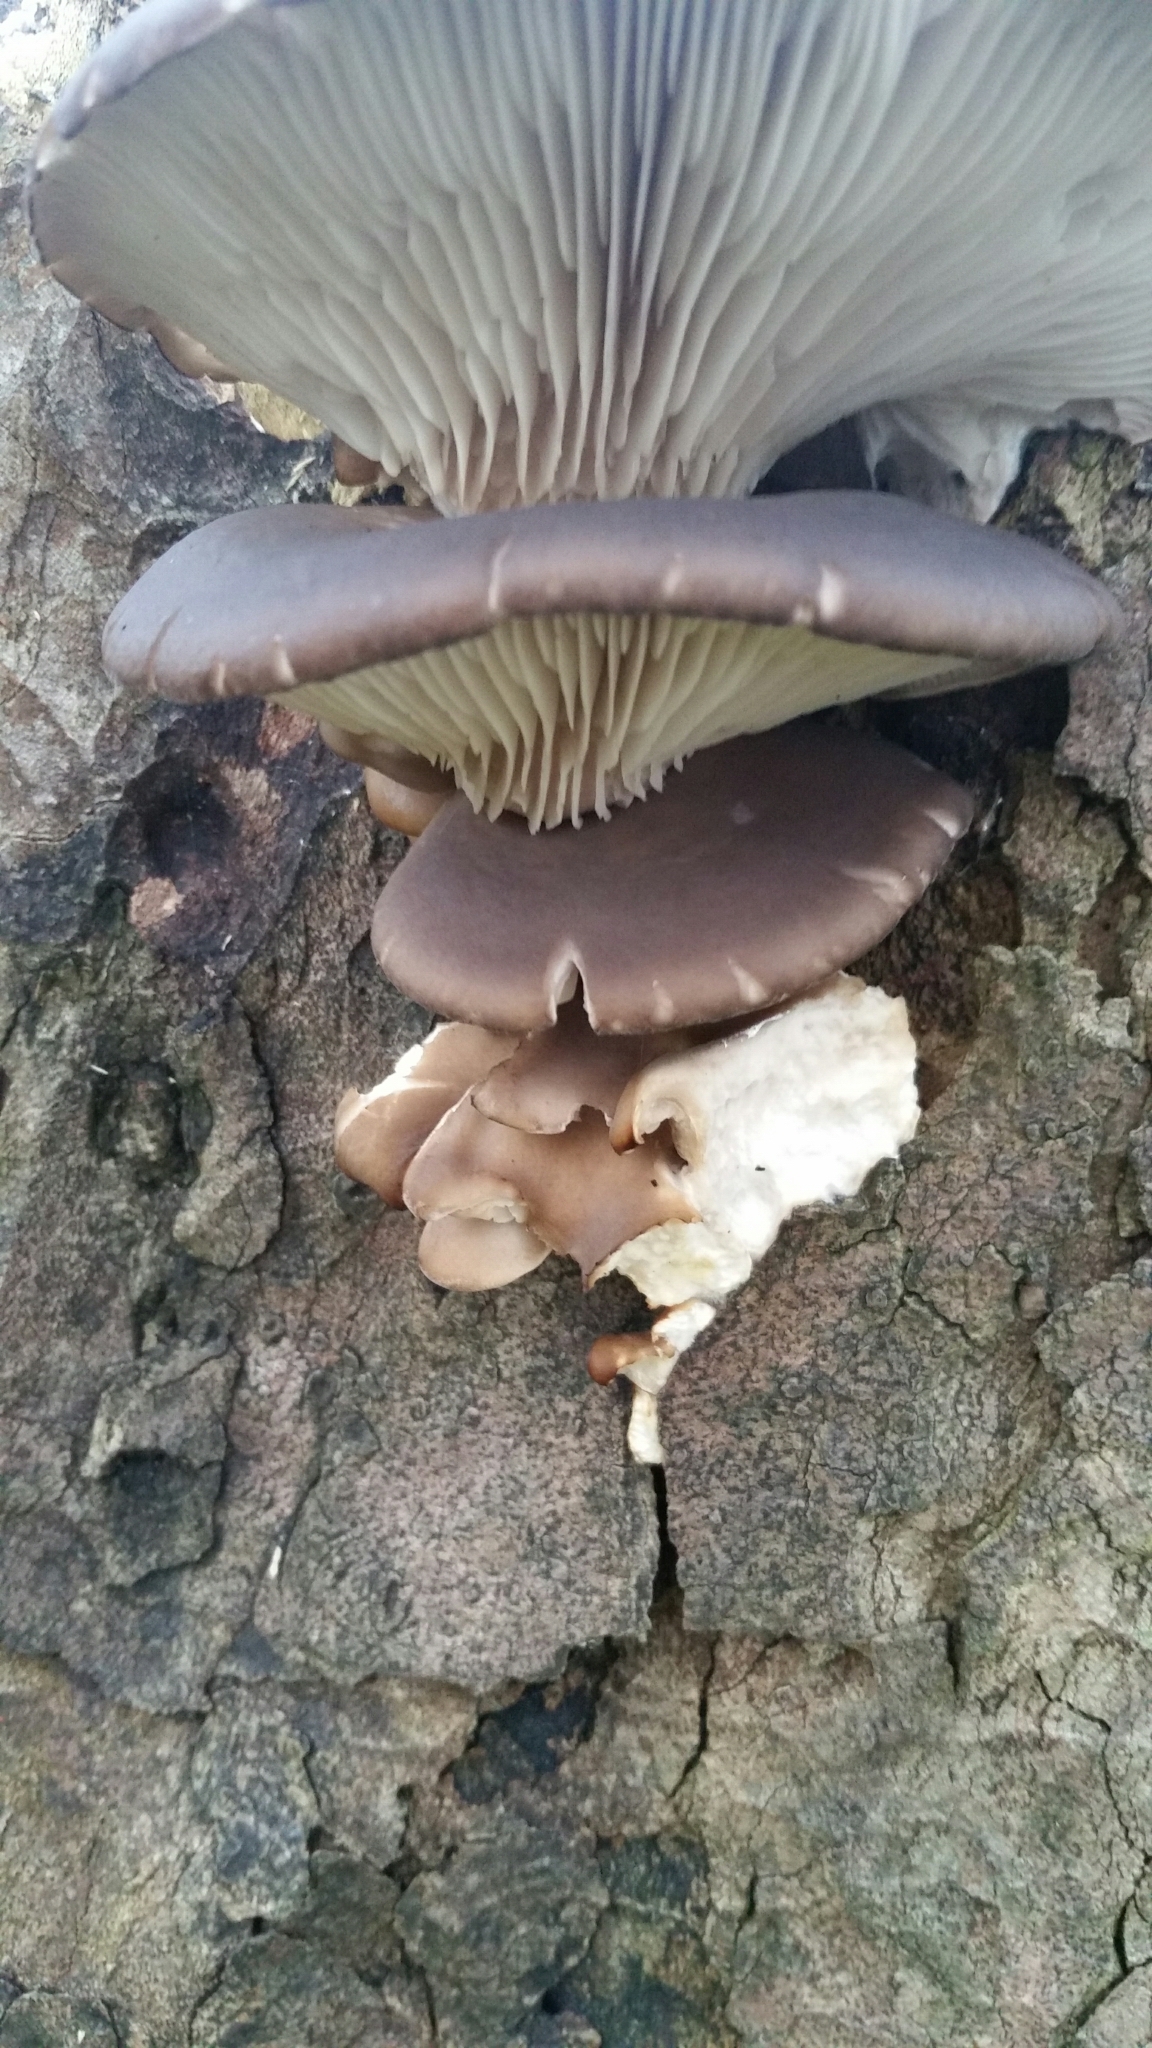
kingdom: Fungi
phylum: Basidiomycota
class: Agaricomycetes
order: Agaricales
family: Sarcomyxaceae
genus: Sarcomyxa
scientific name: Sarcomyxa serotina
